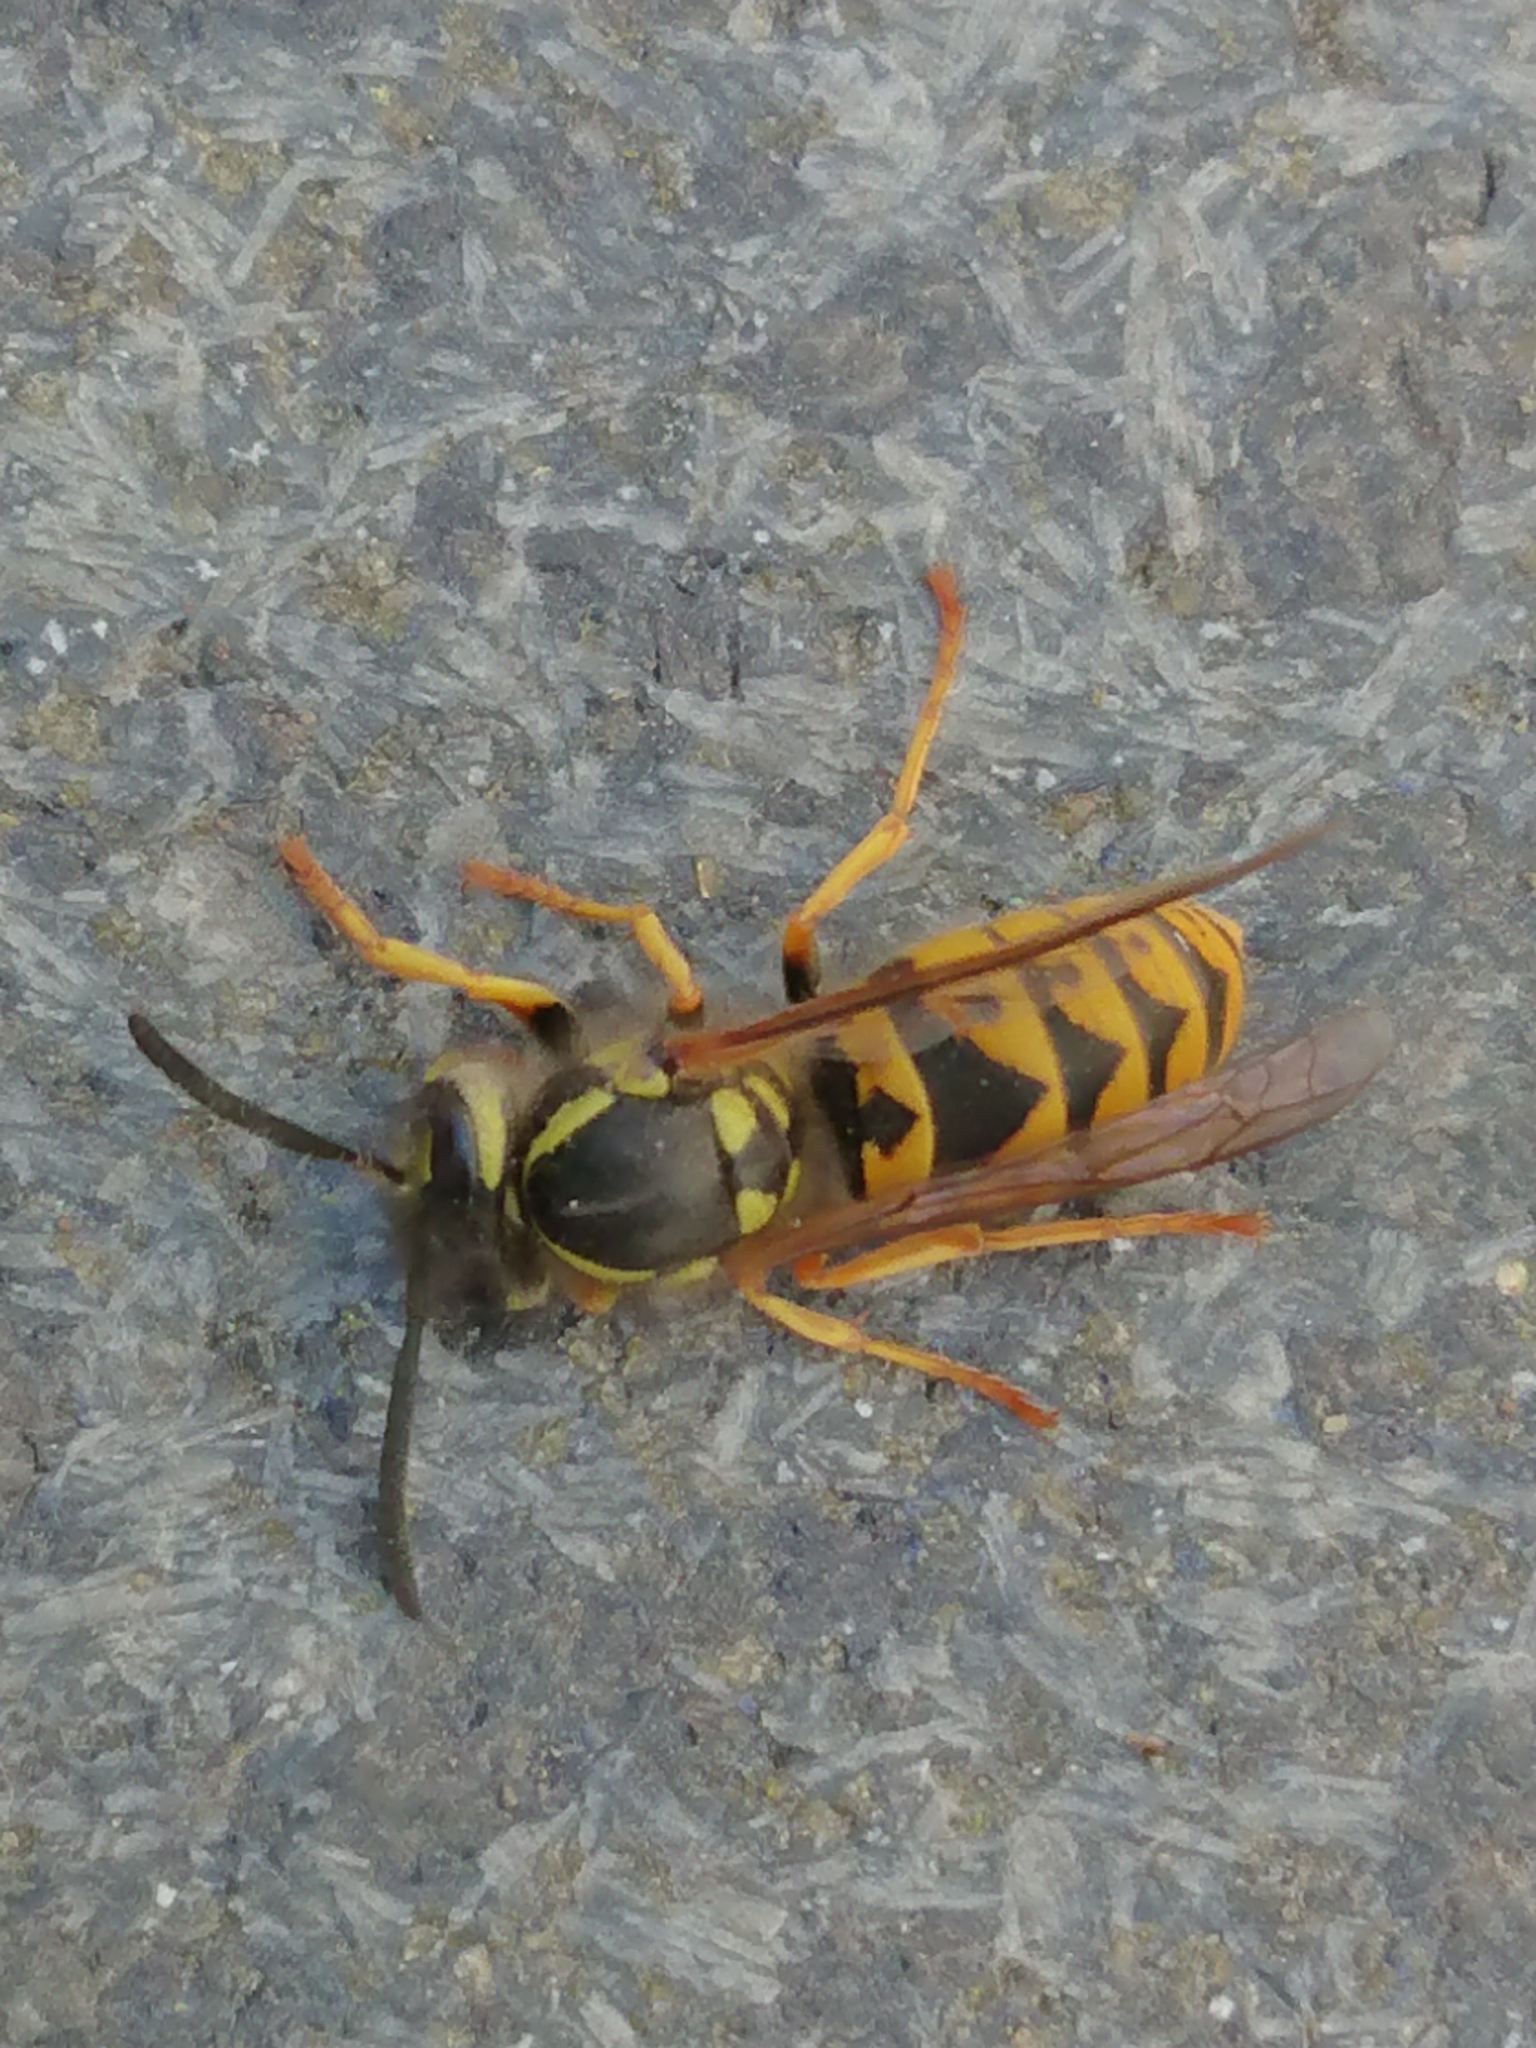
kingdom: Animalia
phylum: Arthropoda
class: Insecta
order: Hymenoptera
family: Vespidae
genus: Vespula
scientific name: Vespula germanica
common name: German wasp
